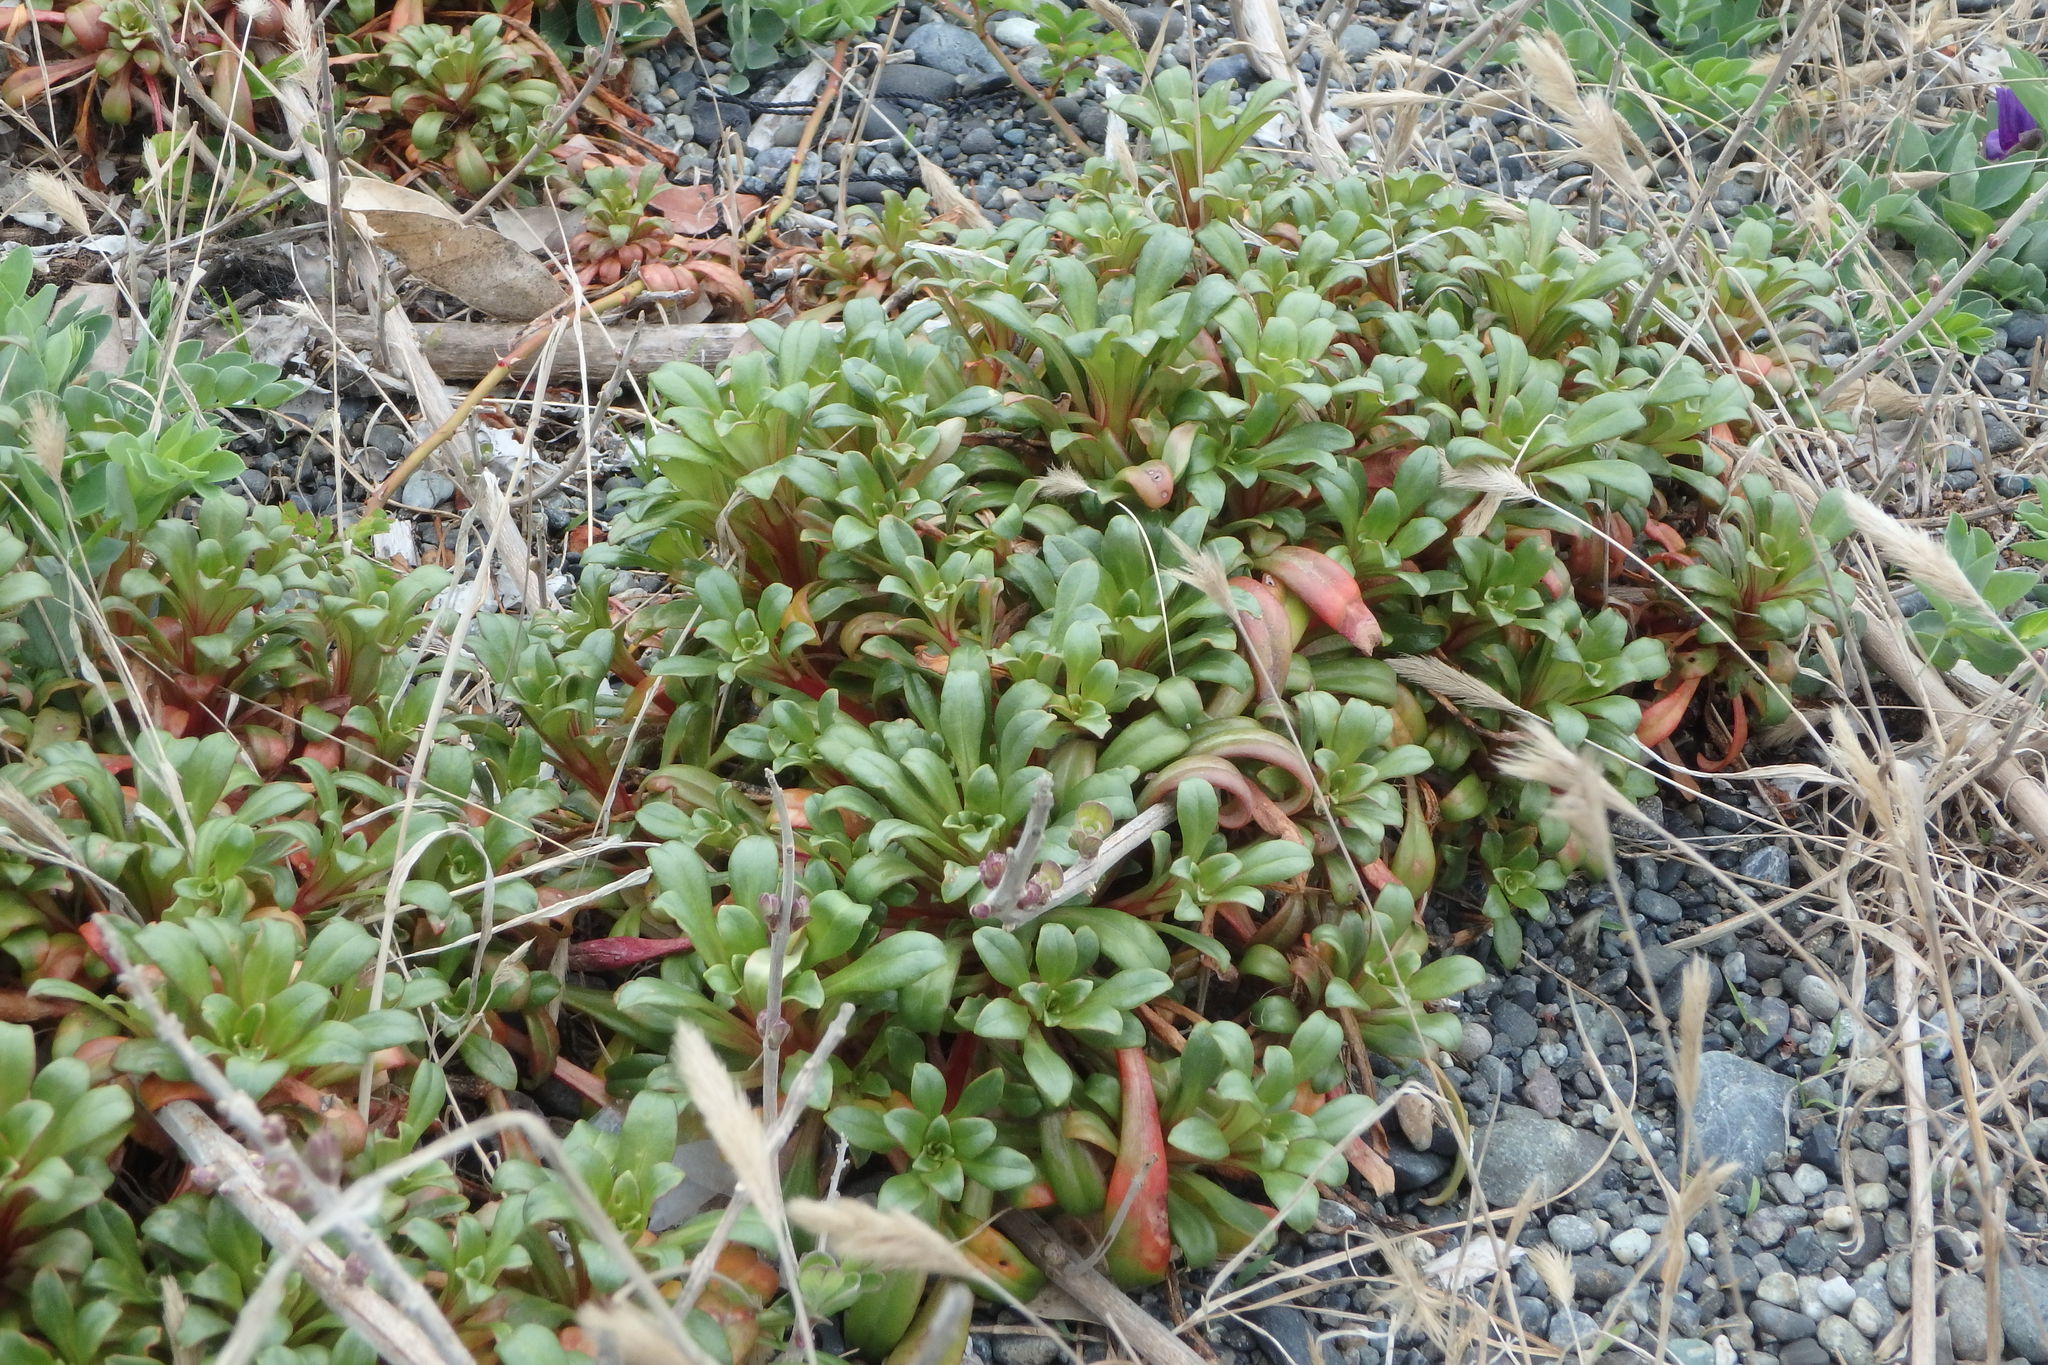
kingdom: Plantae
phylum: Tracheophyta
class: Magnoliopsida
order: Ericales
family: Primulaceae
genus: Lysimachia
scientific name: Lysimachia mauritiana
